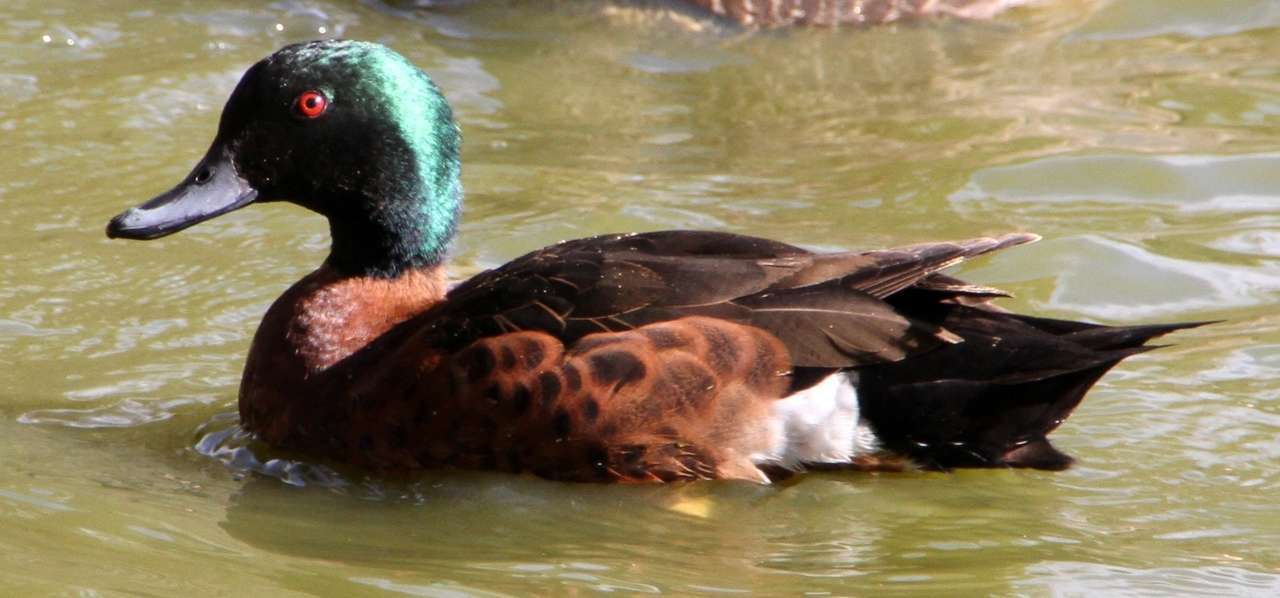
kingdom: Animalia
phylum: Chordata
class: Aves
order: Anseriformes
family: Anatidae
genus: Anas
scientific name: Anas castanea
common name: Chestnut teal
